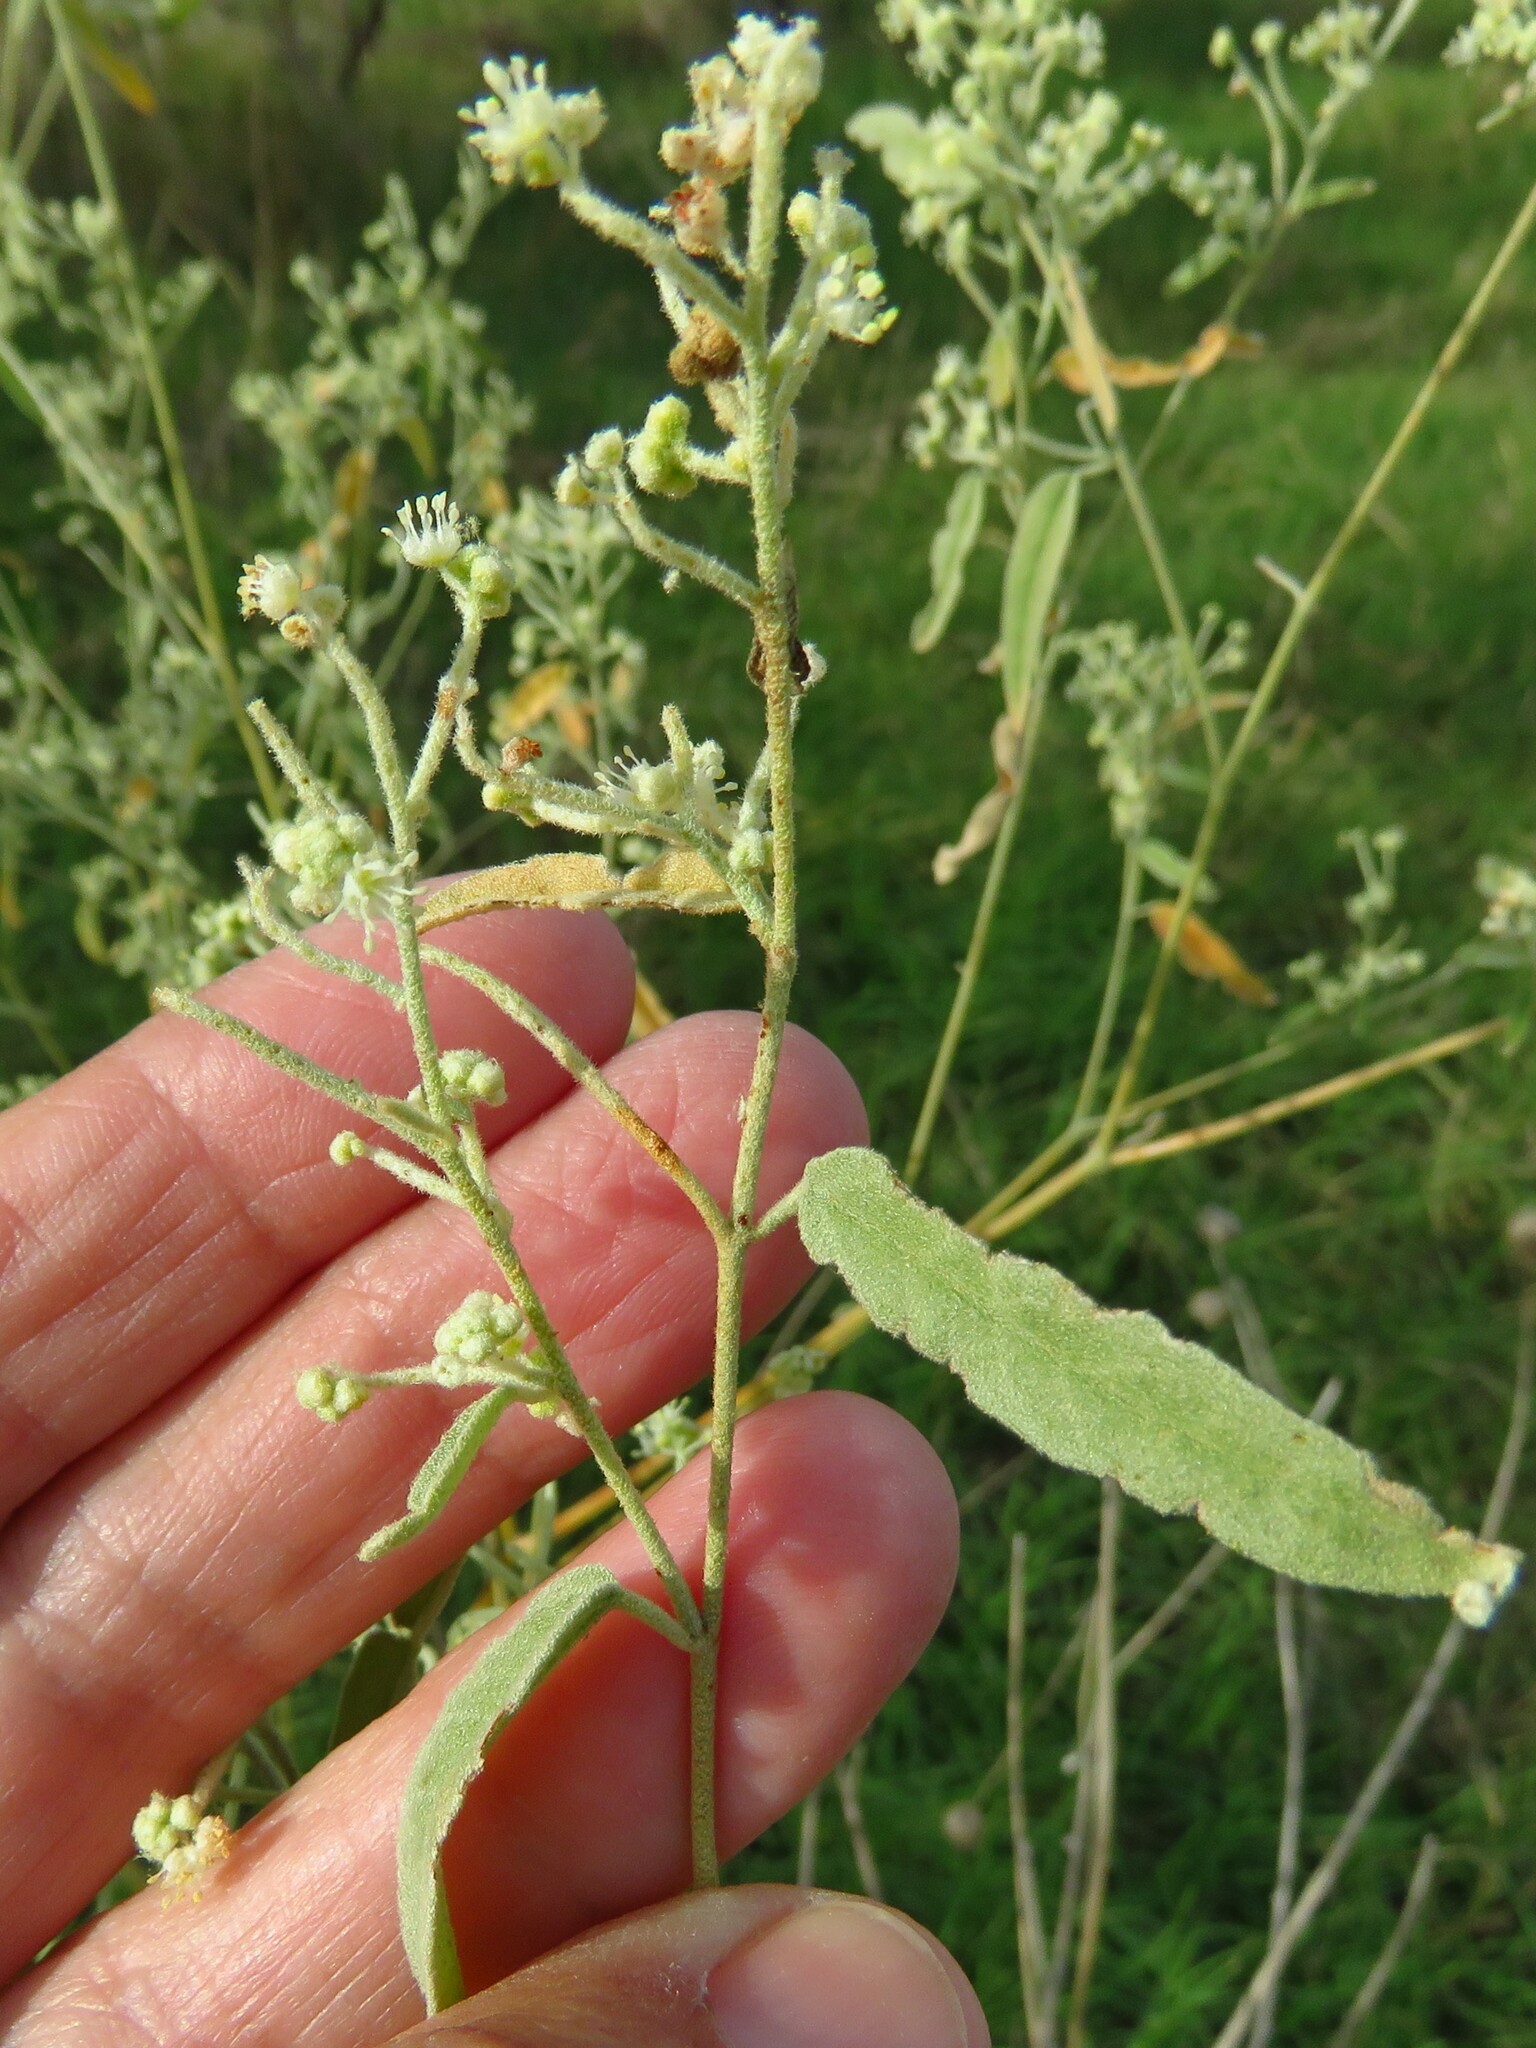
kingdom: Plantae
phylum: Tracheophyta
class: Magnoliopsida
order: Malpighiales
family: Euphorbiaceae
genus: Croton
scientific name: Croton texensis
